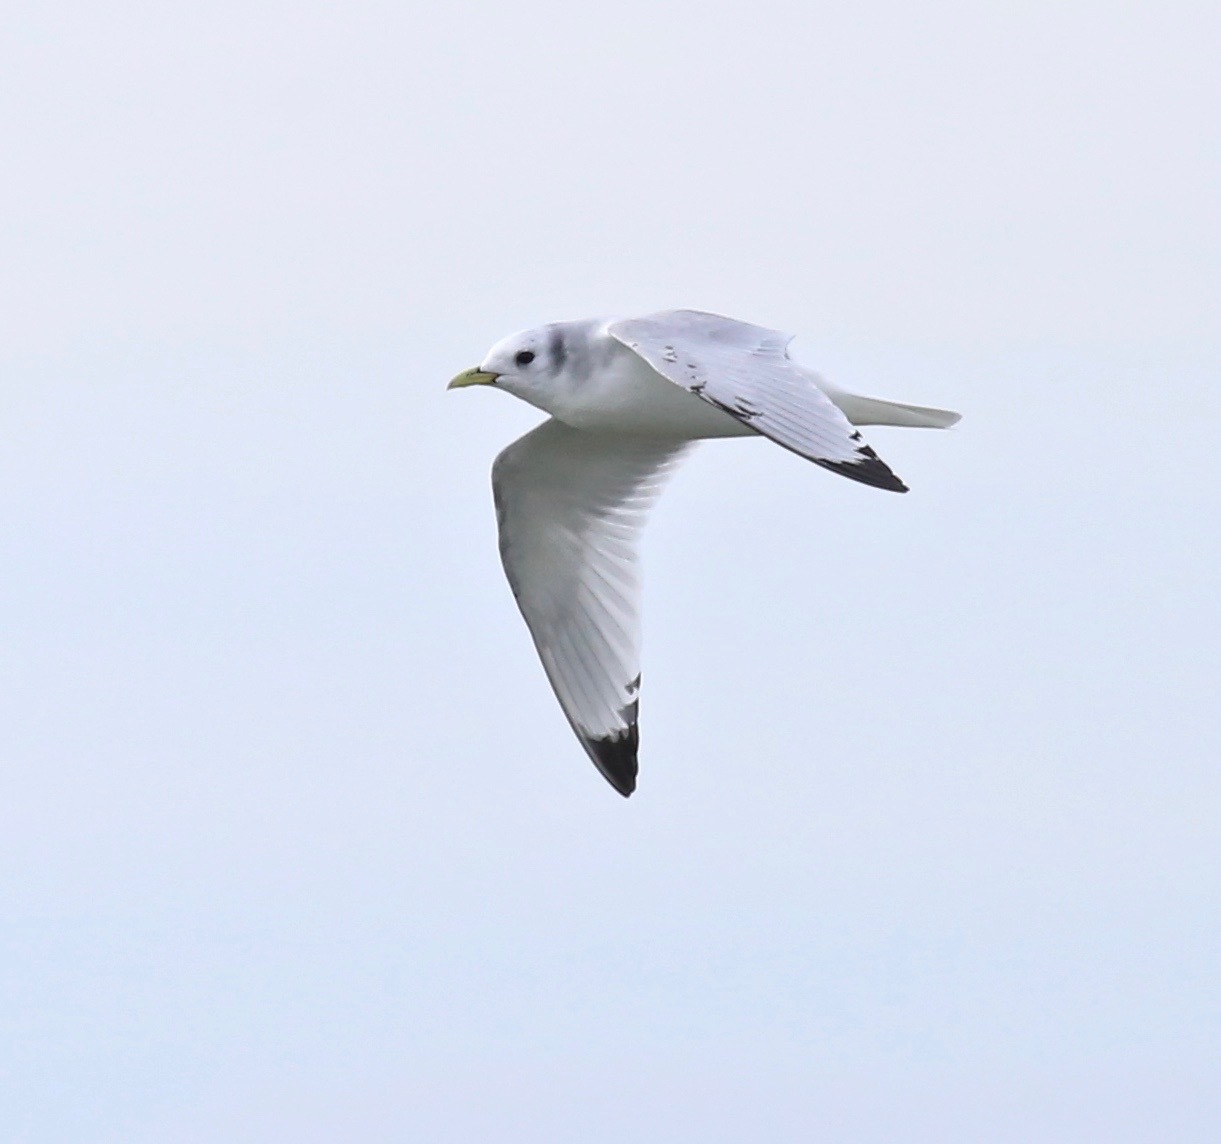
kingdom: Animalia
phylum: Chordata
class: Aves
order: Charadriiformes
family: Laridae
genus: Rissa
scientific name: Rissa tridactyla
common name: Black-legged kittiwake
